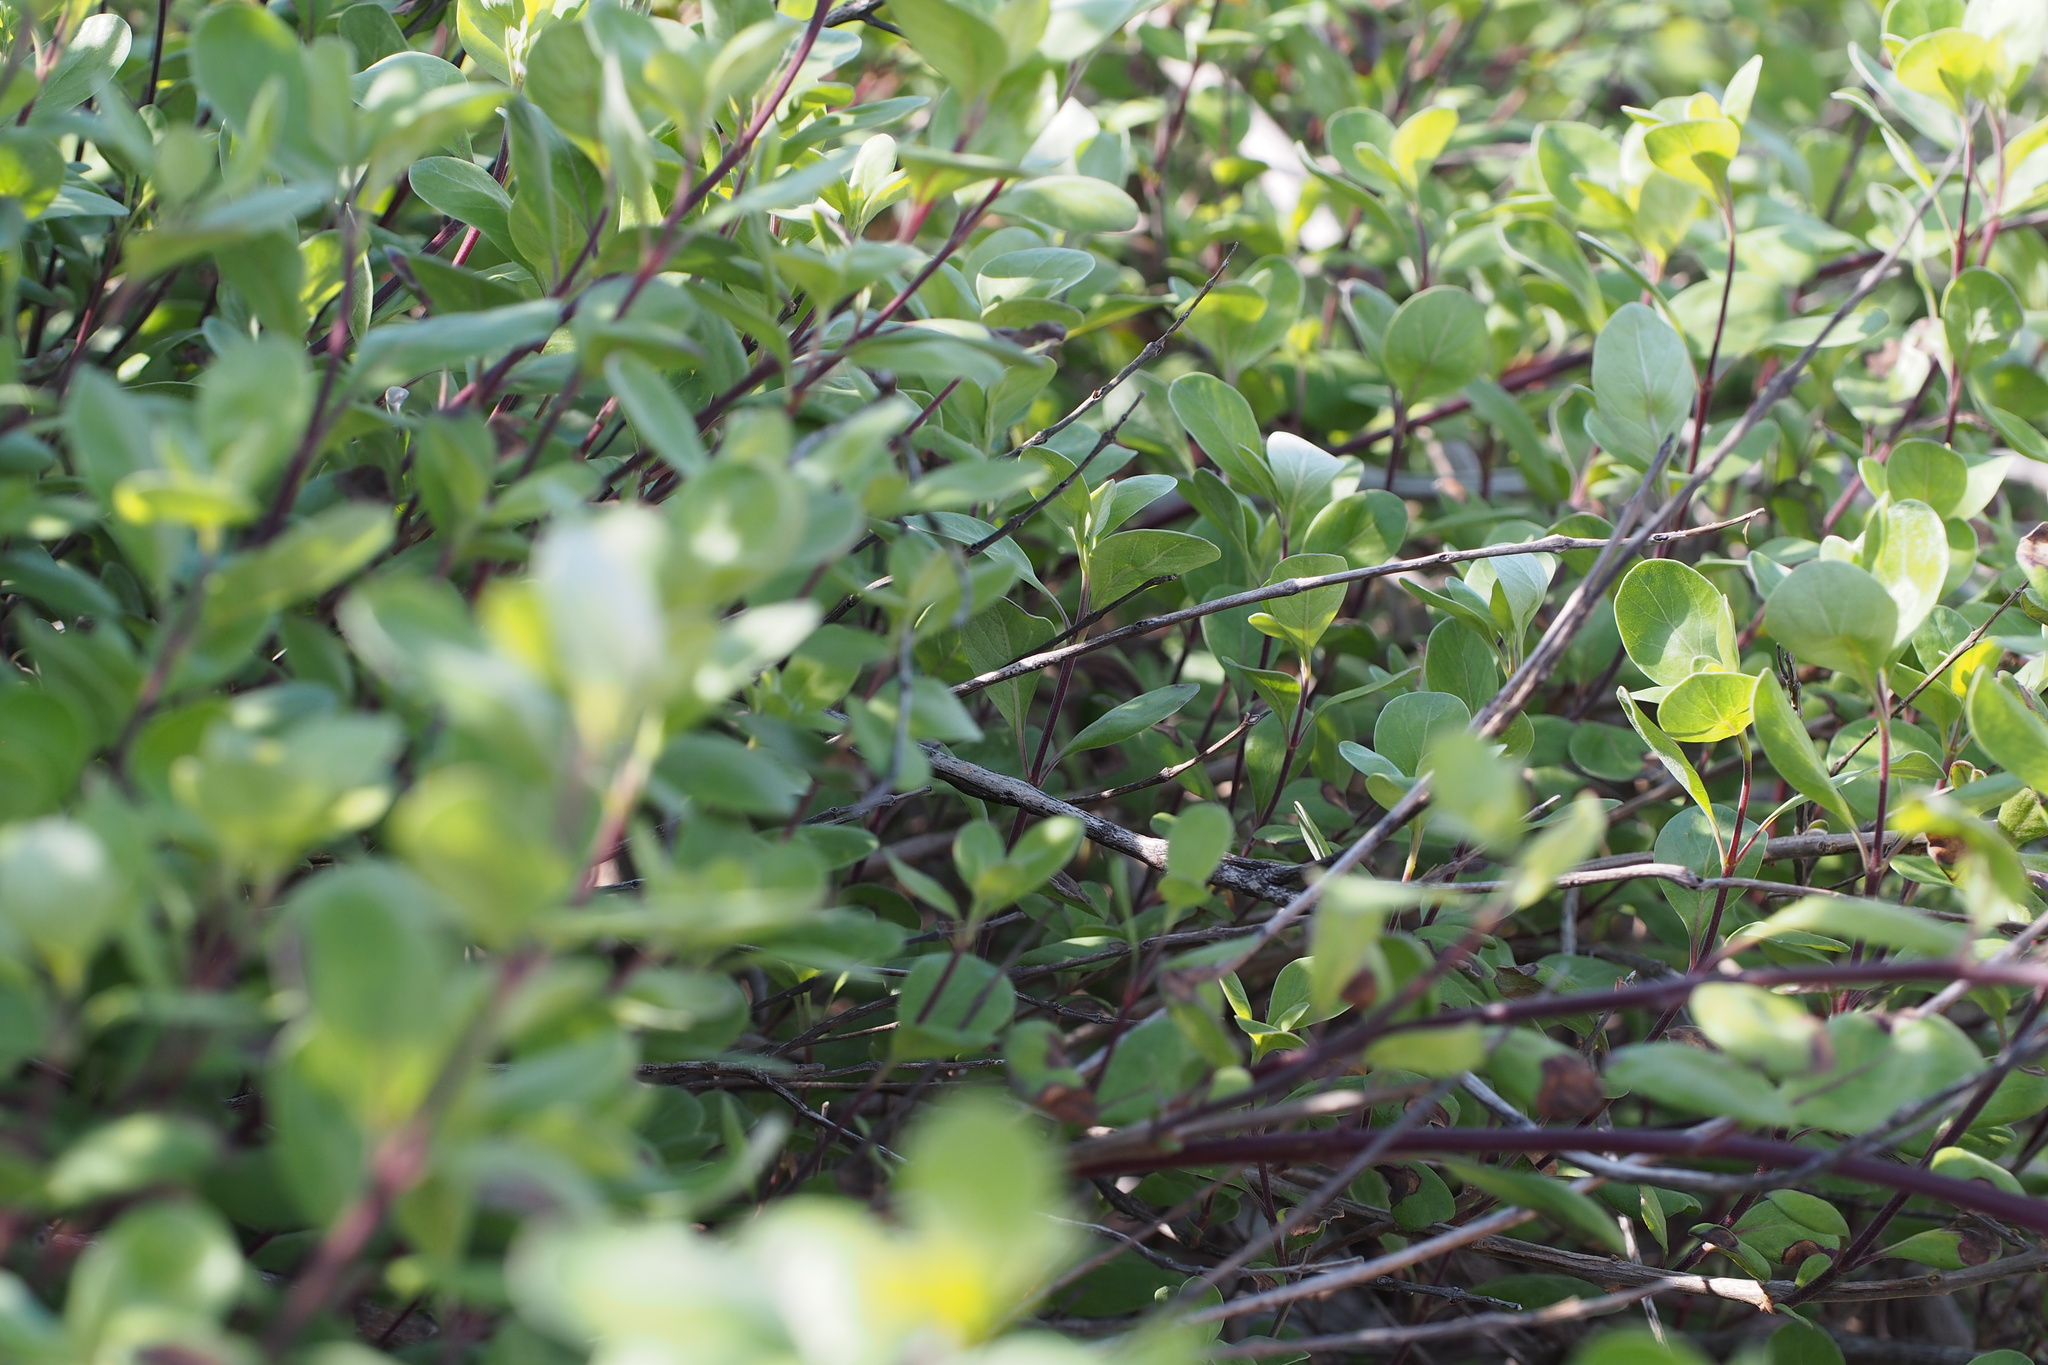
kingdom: Plantae
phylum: Tracheophyta
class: Magnoliopsida
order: Lamiales
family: Lamiaceae
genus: Vitex
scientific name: Vitex rotundifolia
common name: Beach vitex
